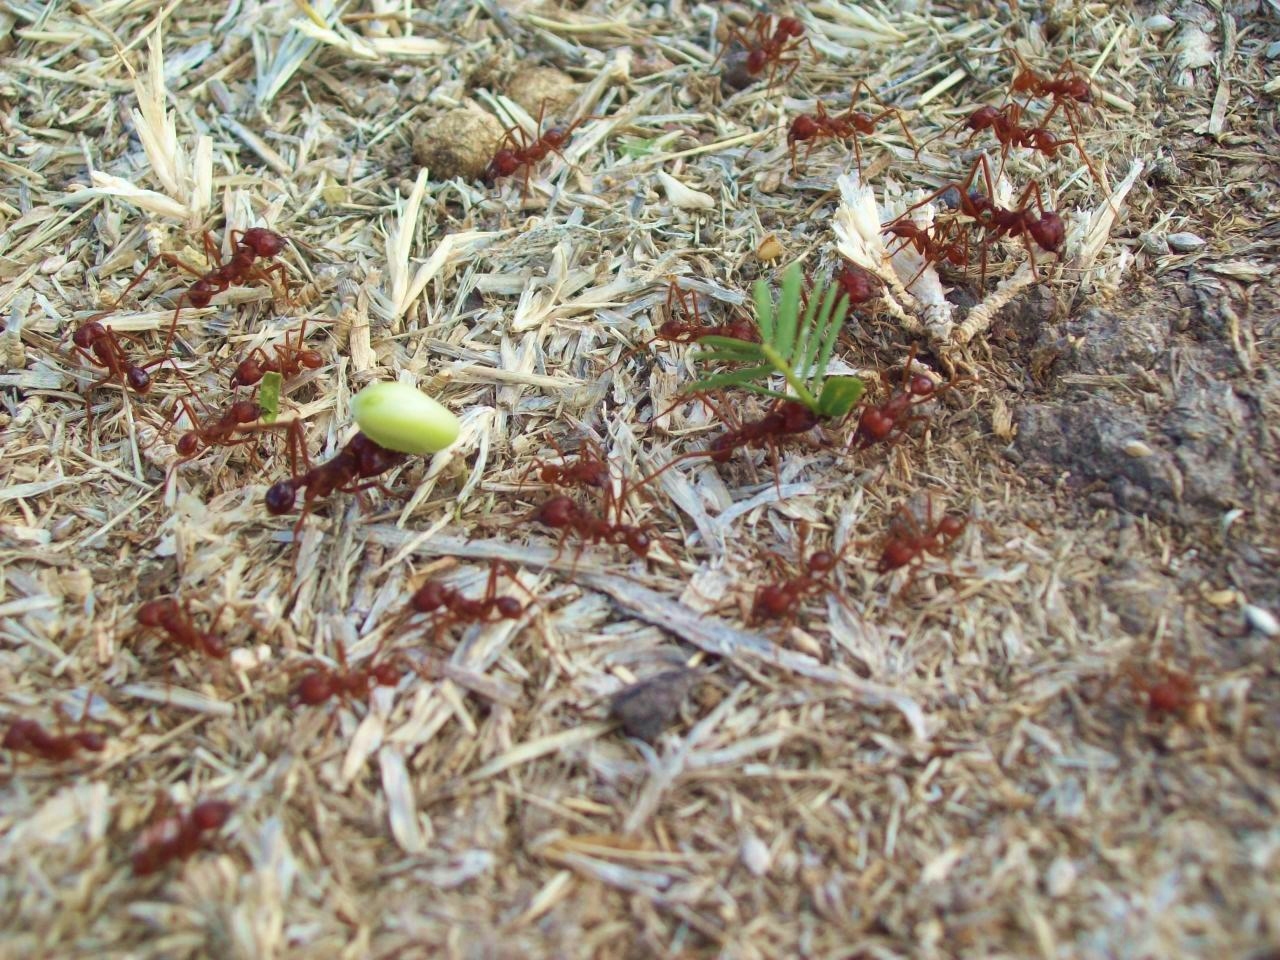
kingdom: Animalia
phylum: Arthropoda
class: Insecta
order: Hymenoptera
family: Formicidae
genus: Atta
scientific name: Atta mexicana
